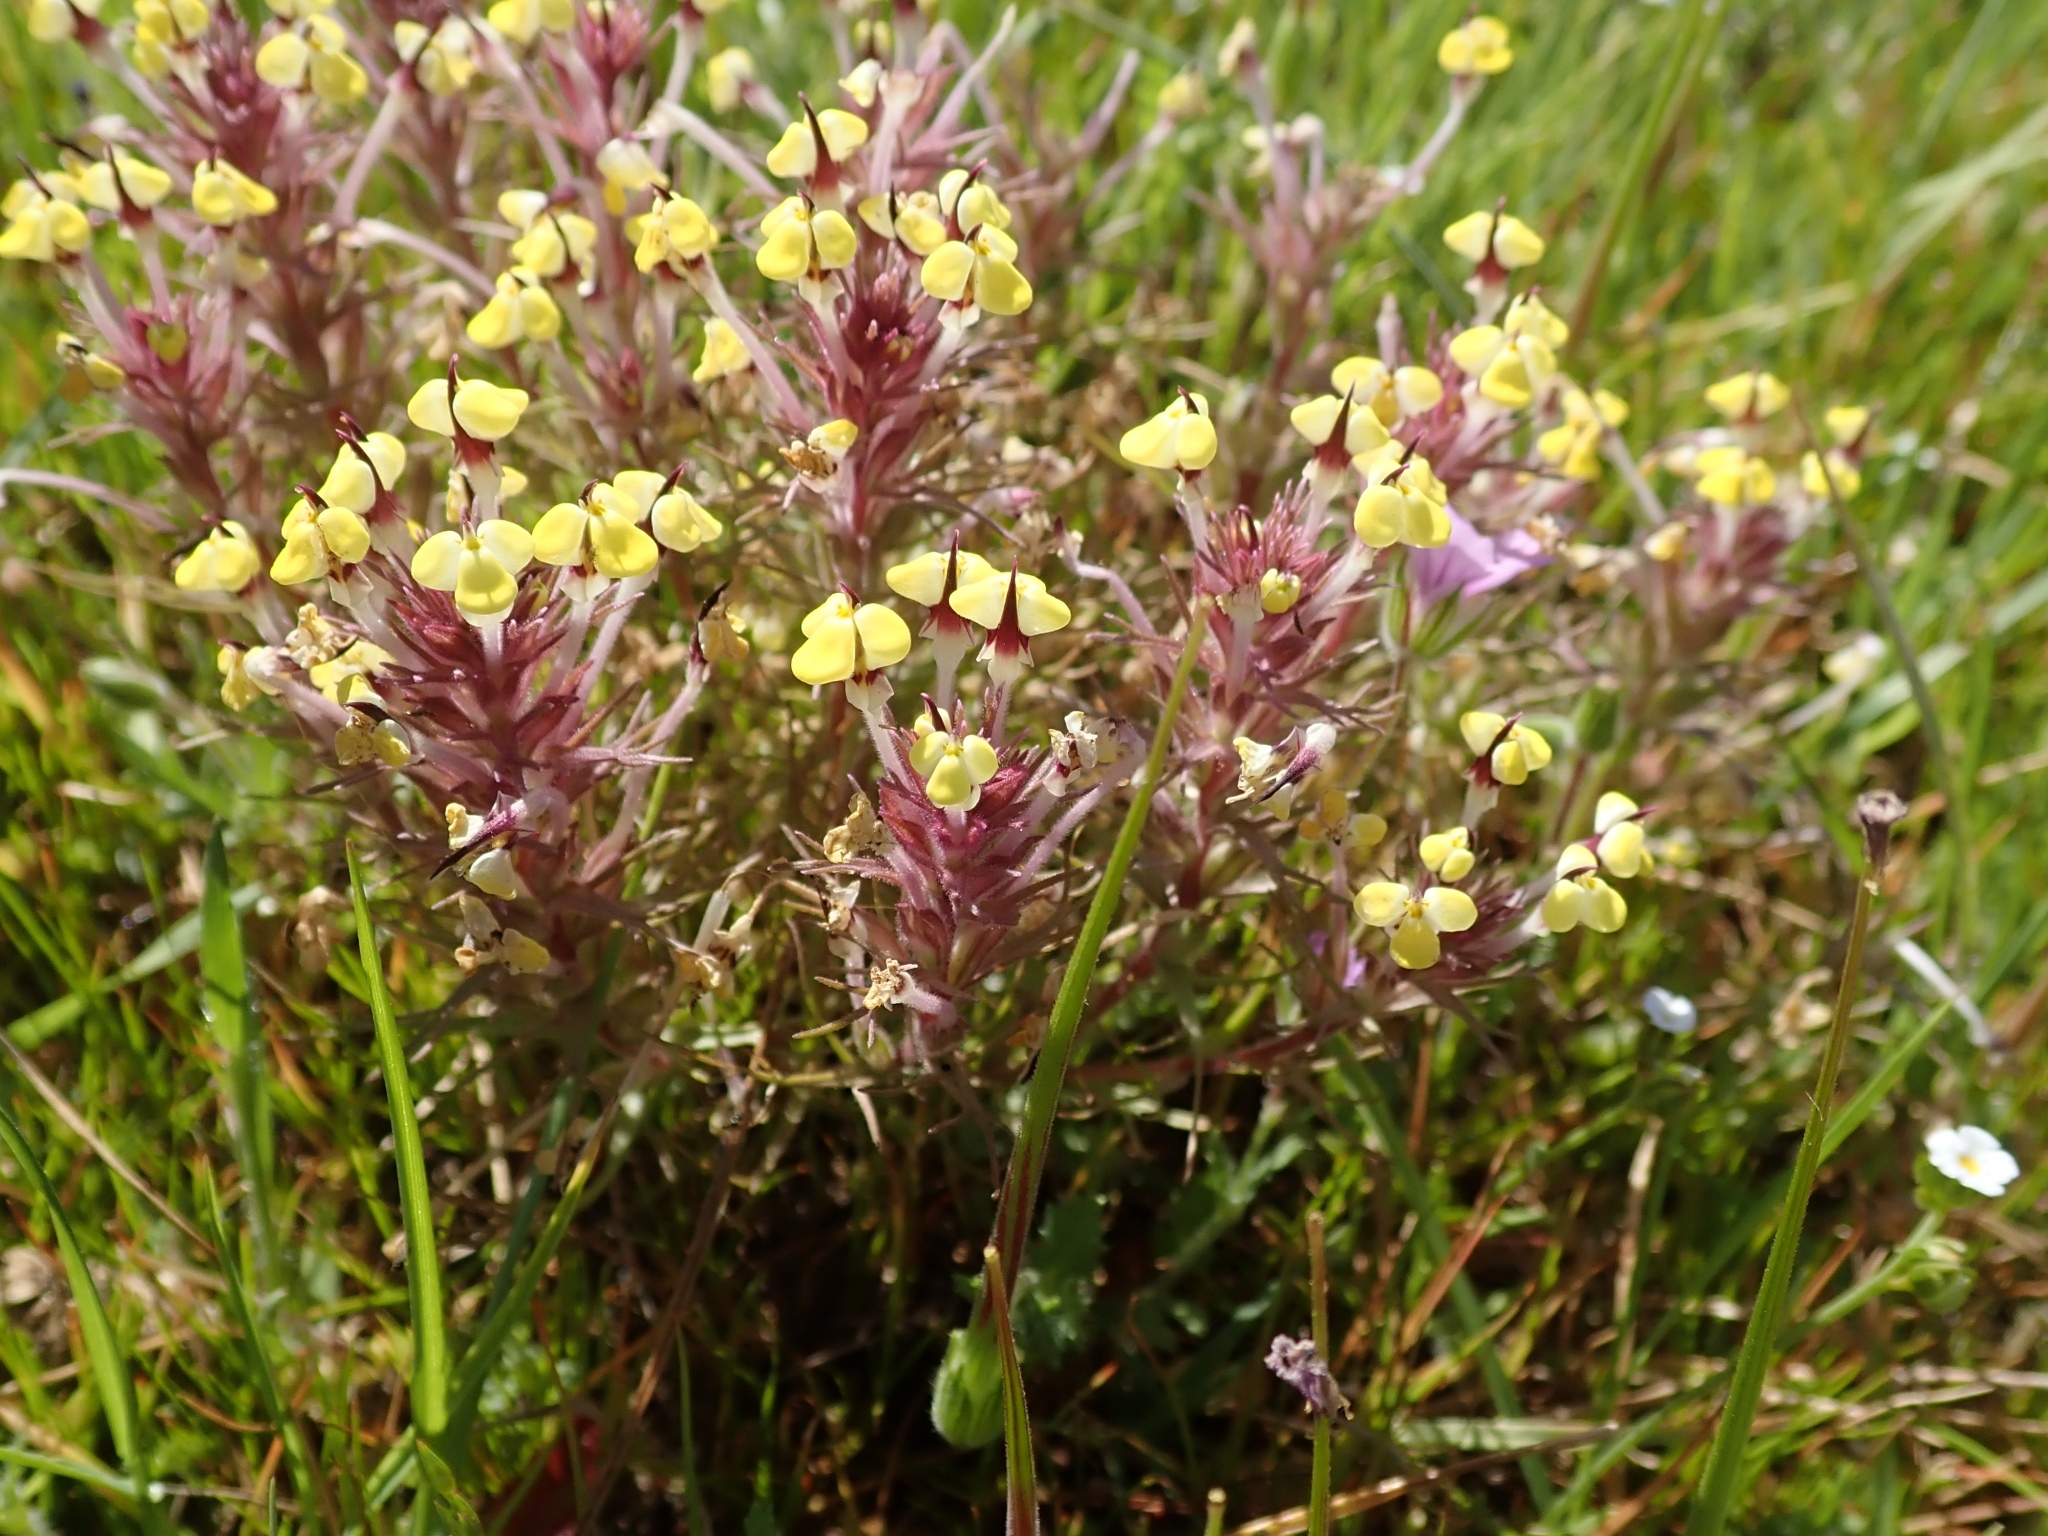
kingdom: Plantae
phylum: Tracheophyta
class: Magnoliopsida
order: Lamiales
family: Orobanchaceae
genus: Triphysaria
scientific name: Triphysaria eriantha
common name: Johnny-tuck
